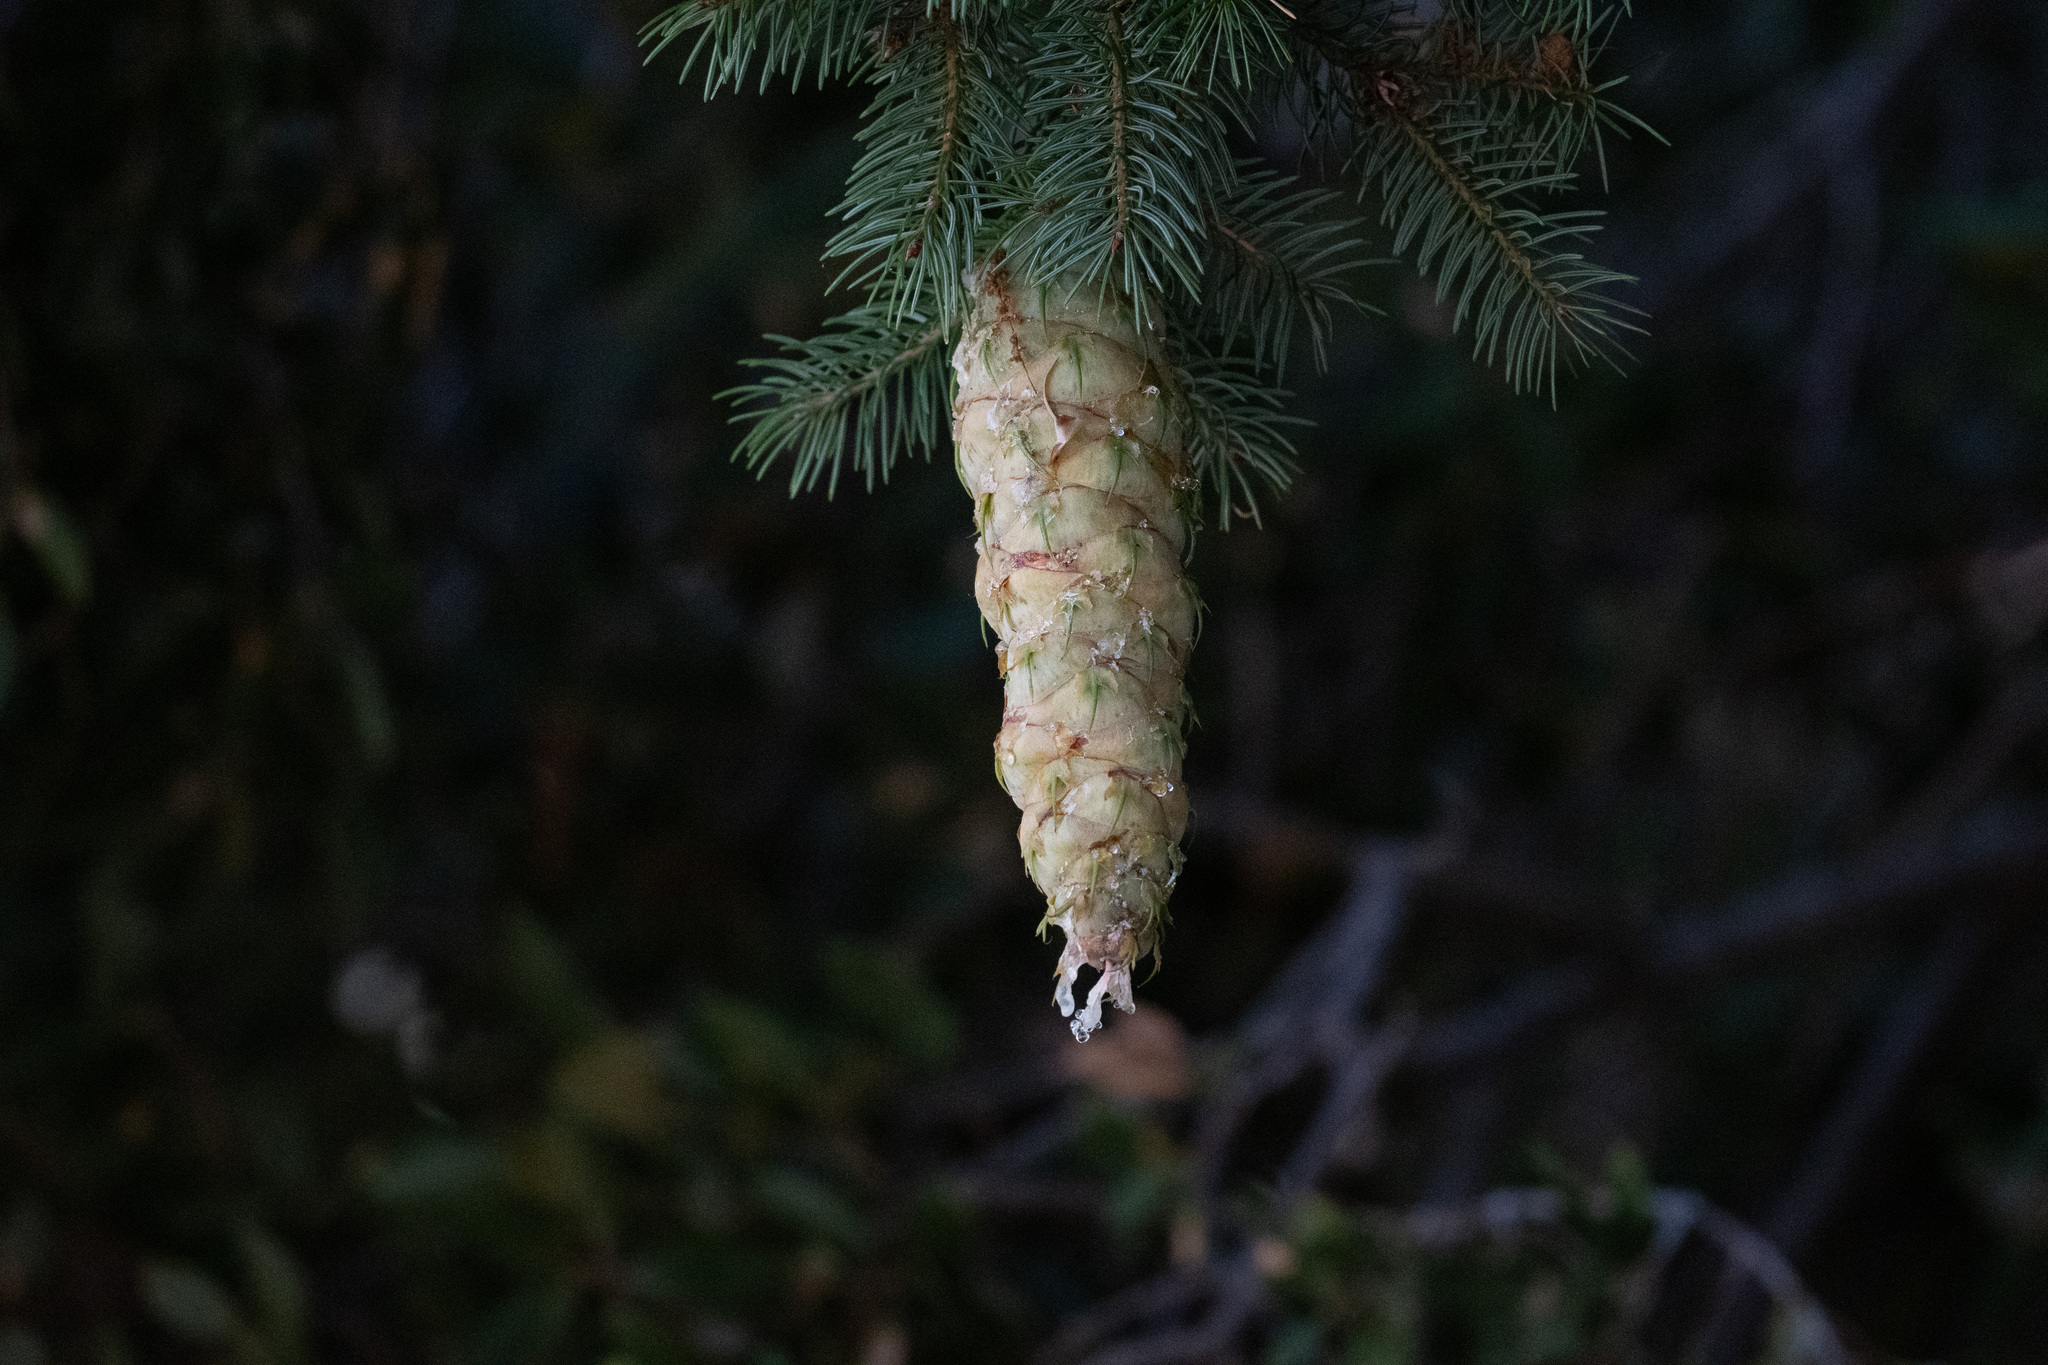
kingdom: Plantae
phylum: Tracheophyta
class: Pinopsida
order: Pinales
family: Pinaceae
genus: Pseudotsuga
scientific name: Pseudotsuga macrocarpa
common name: Big-cone douglas-fir
